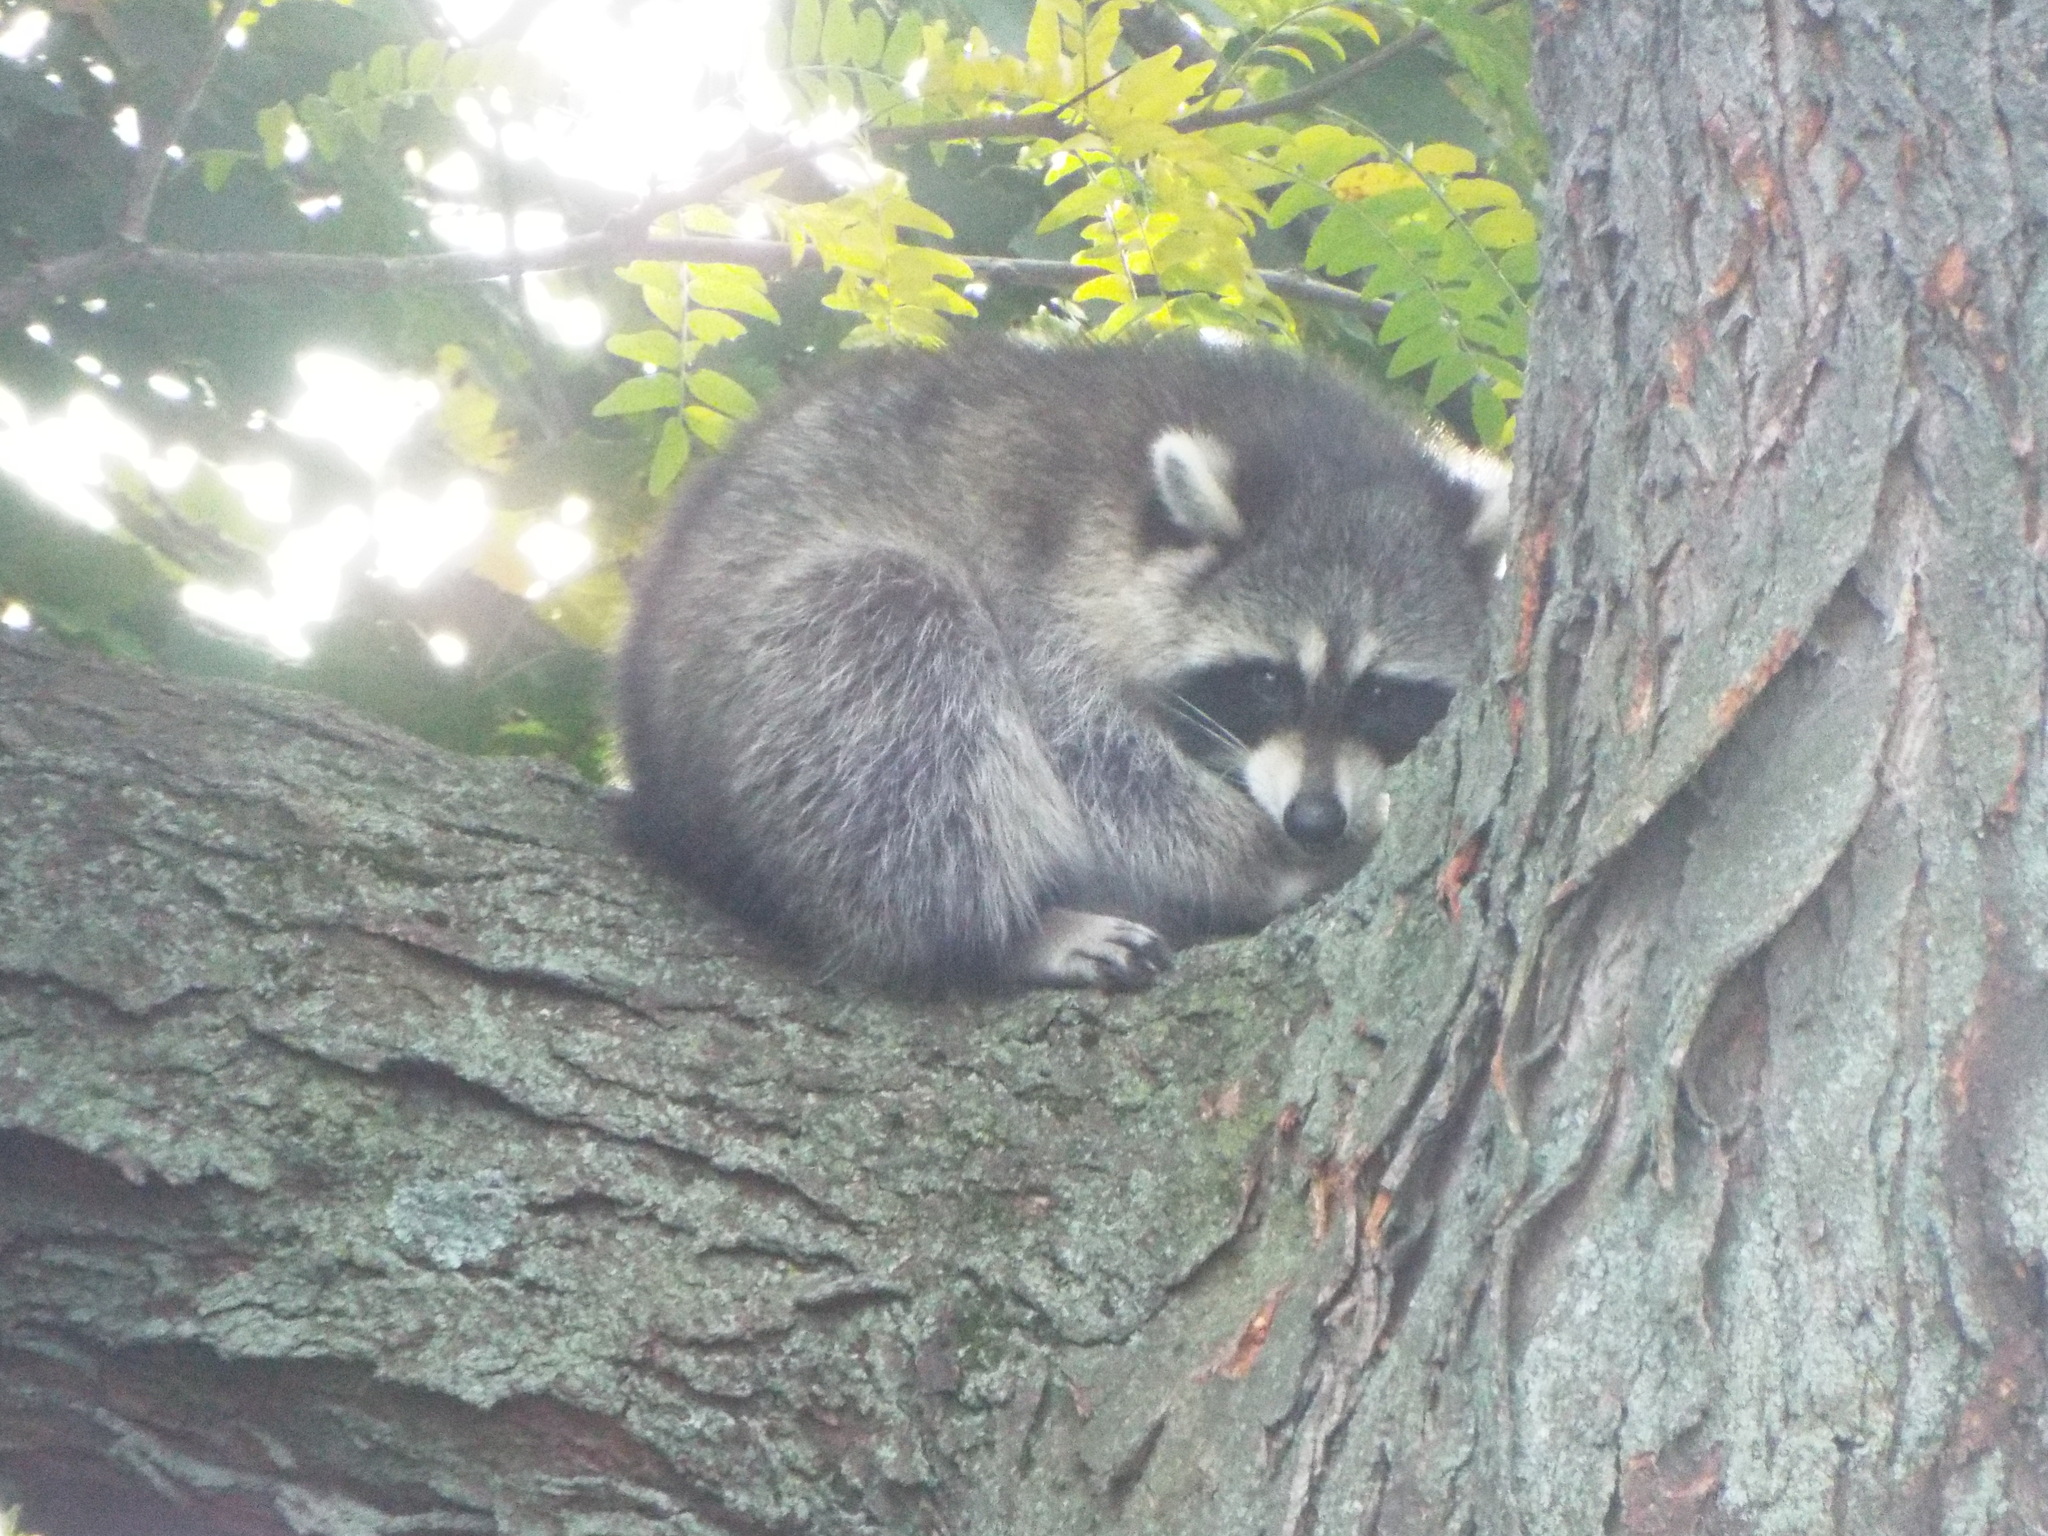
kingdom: Animalia
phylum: Chordata
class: Mammalia
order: Carnivora
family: Procyonidae
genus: Procyon
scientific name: Procyon lotor
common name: Raccoon
